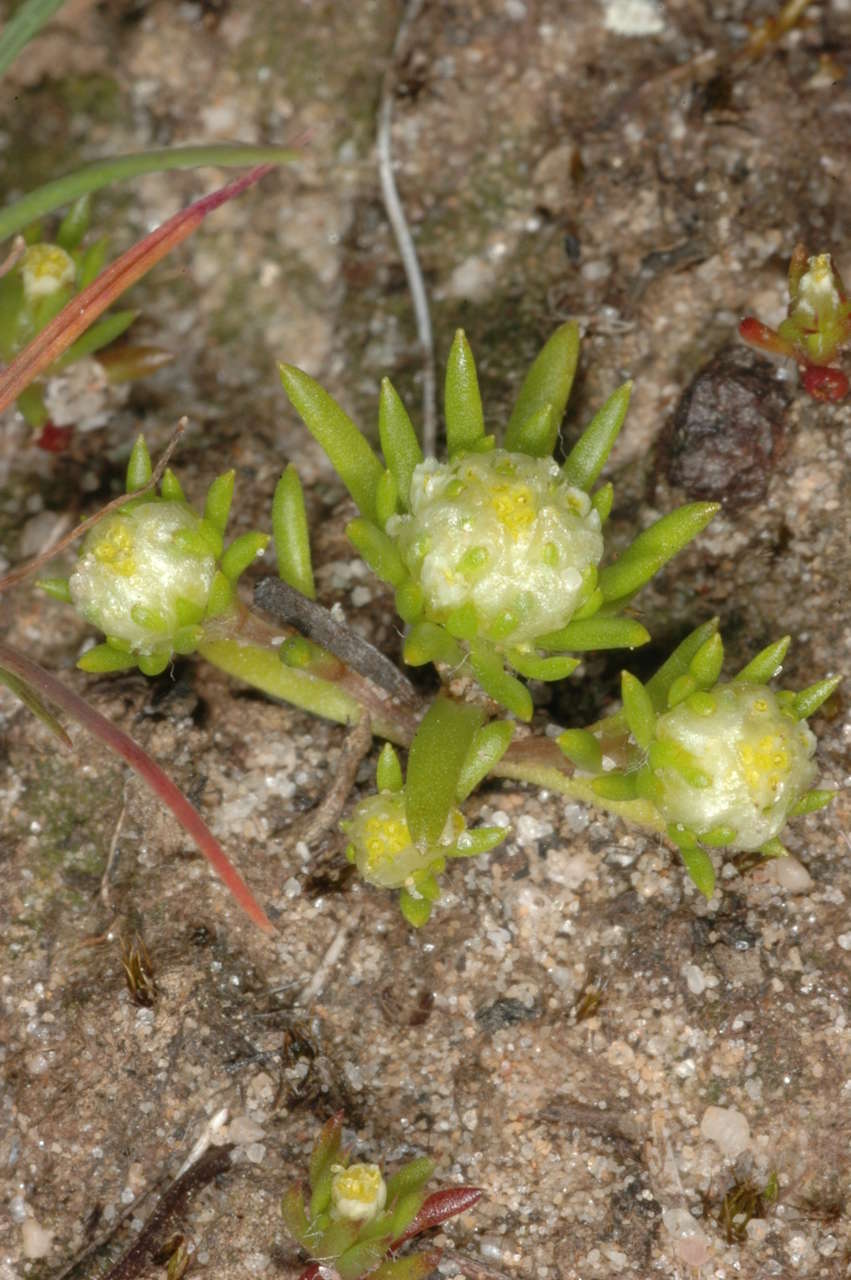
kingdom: Plantae
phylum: Tracheophyta
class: Magnoliopsida
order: Asterales
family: Asteraceae
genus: Siloxerus
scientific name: Siloxerus multiflorus
